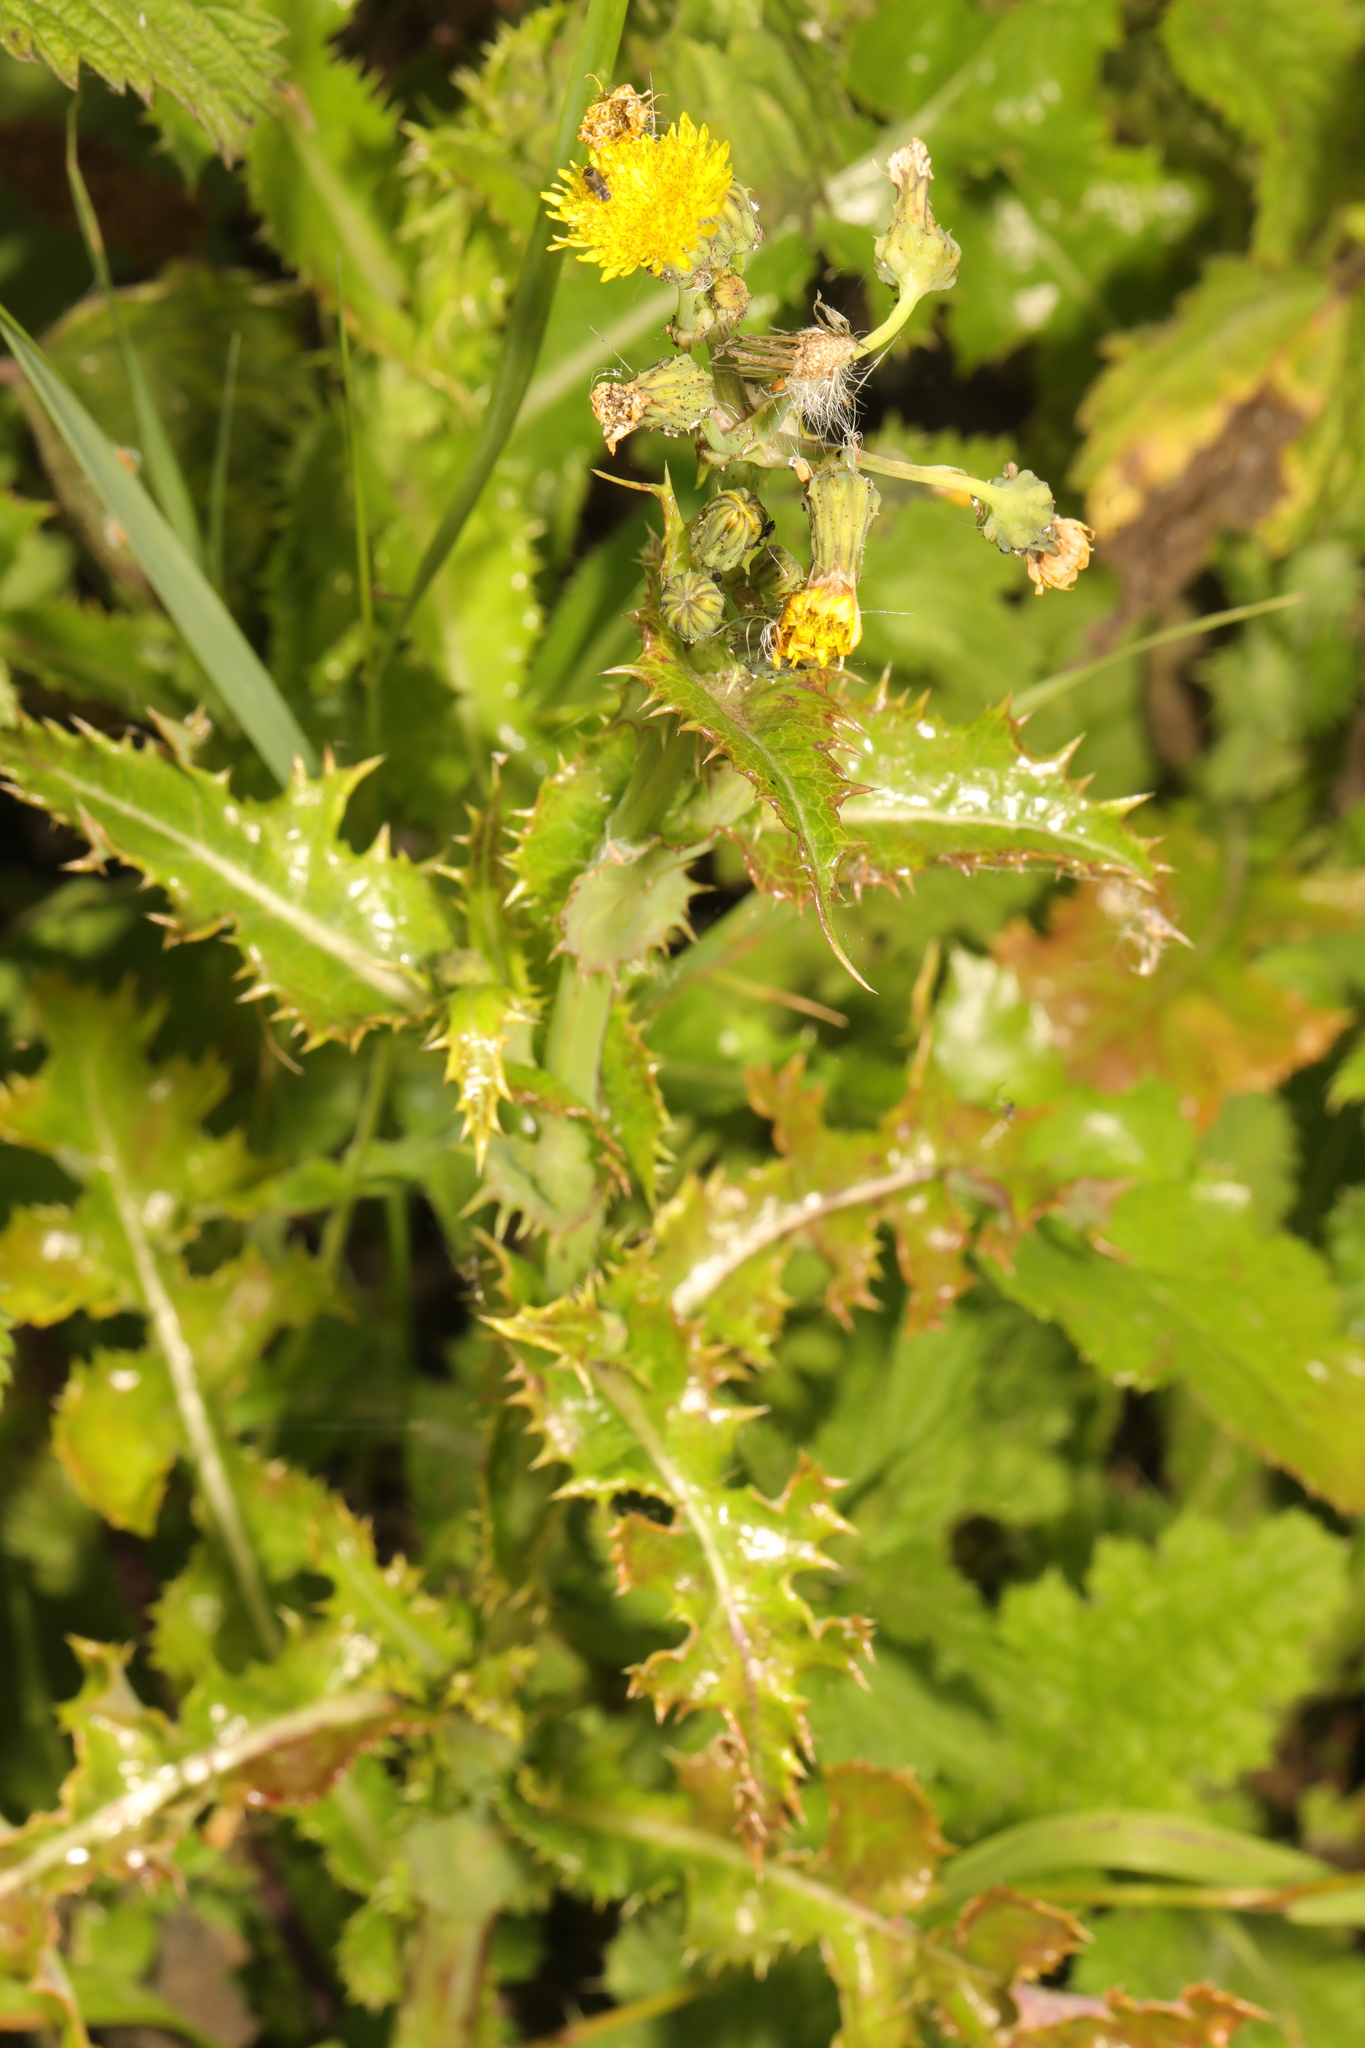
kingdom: Plantae
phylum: Tracheophyta
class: Magnoliopsida
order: Asterales
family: Asteraceae
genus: Sonchus
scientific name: Sonchus asper
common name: Prickly sow-thistle
